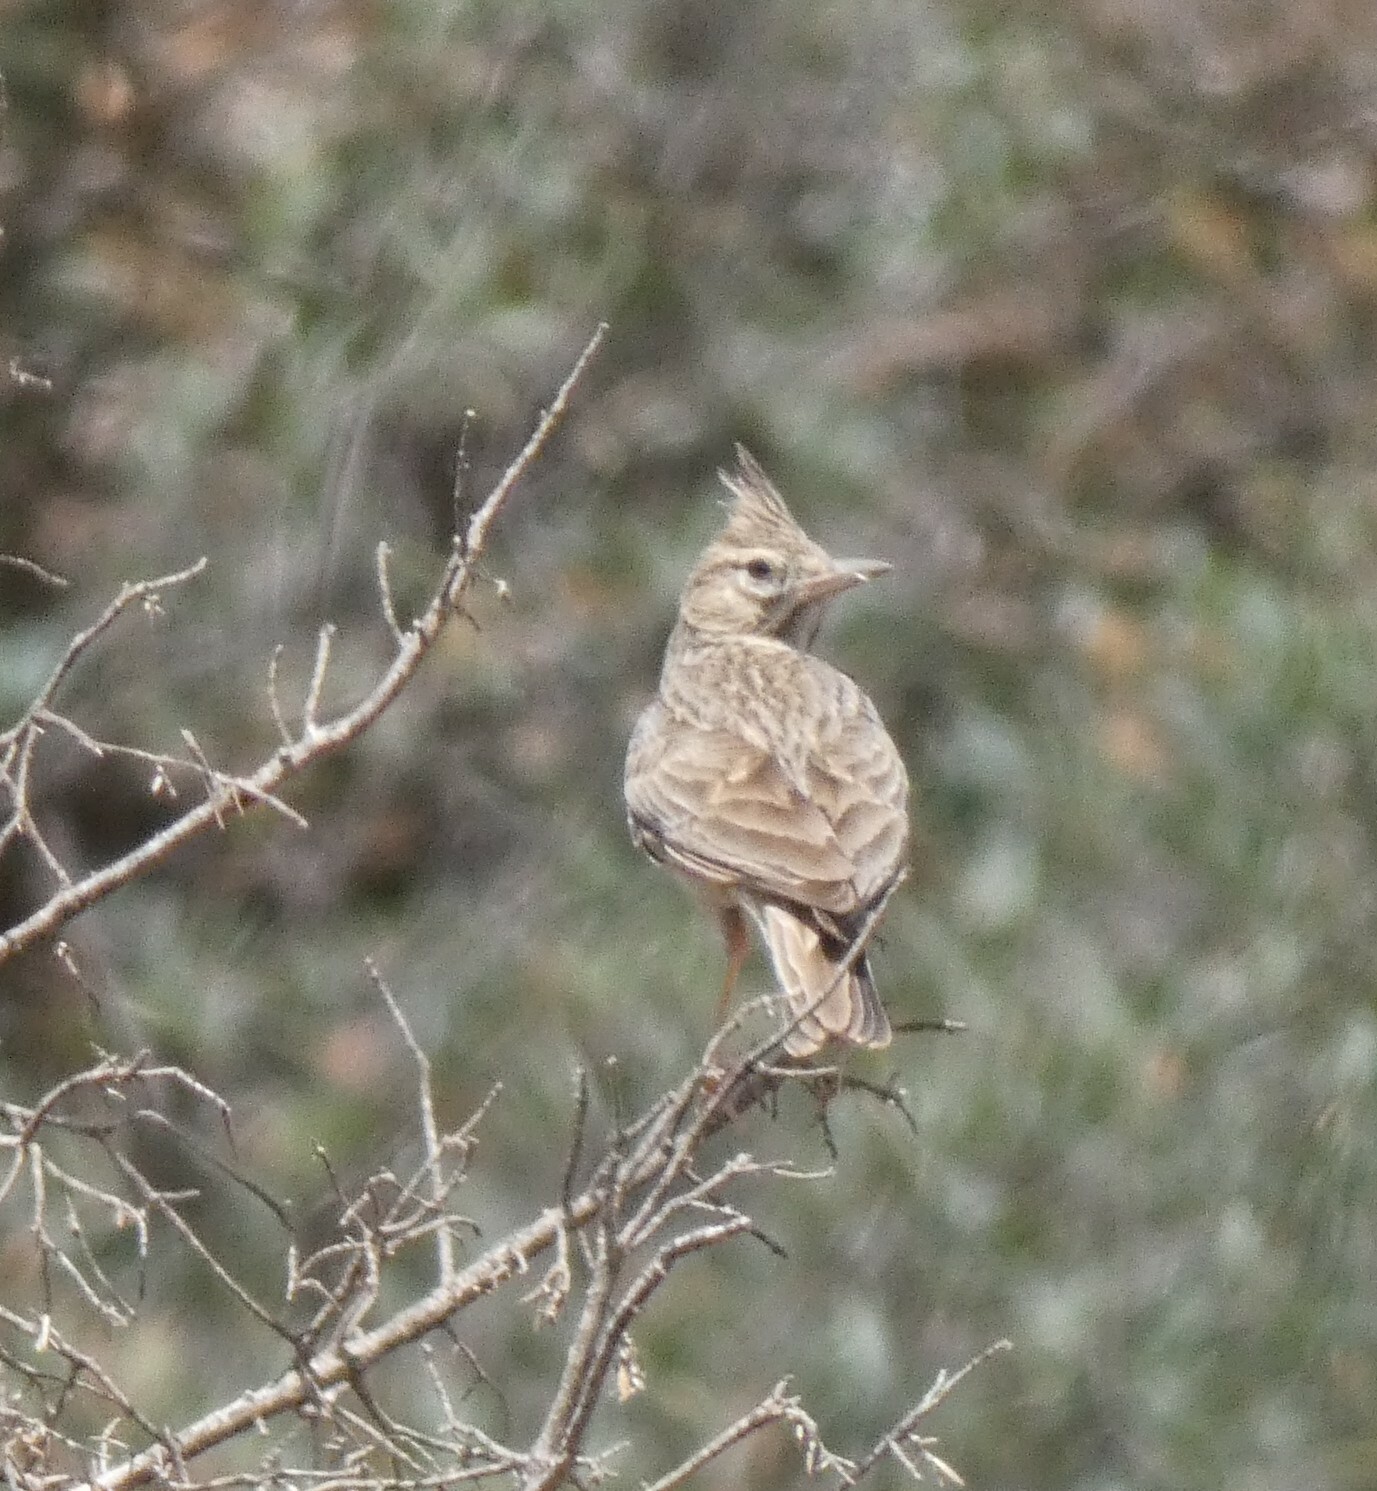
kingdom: Animalia
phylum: Chordata
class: Aves
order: Passeriformes
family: Alaudidae
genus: Galerida
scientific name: Galerida theklae
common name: Thekla lark
